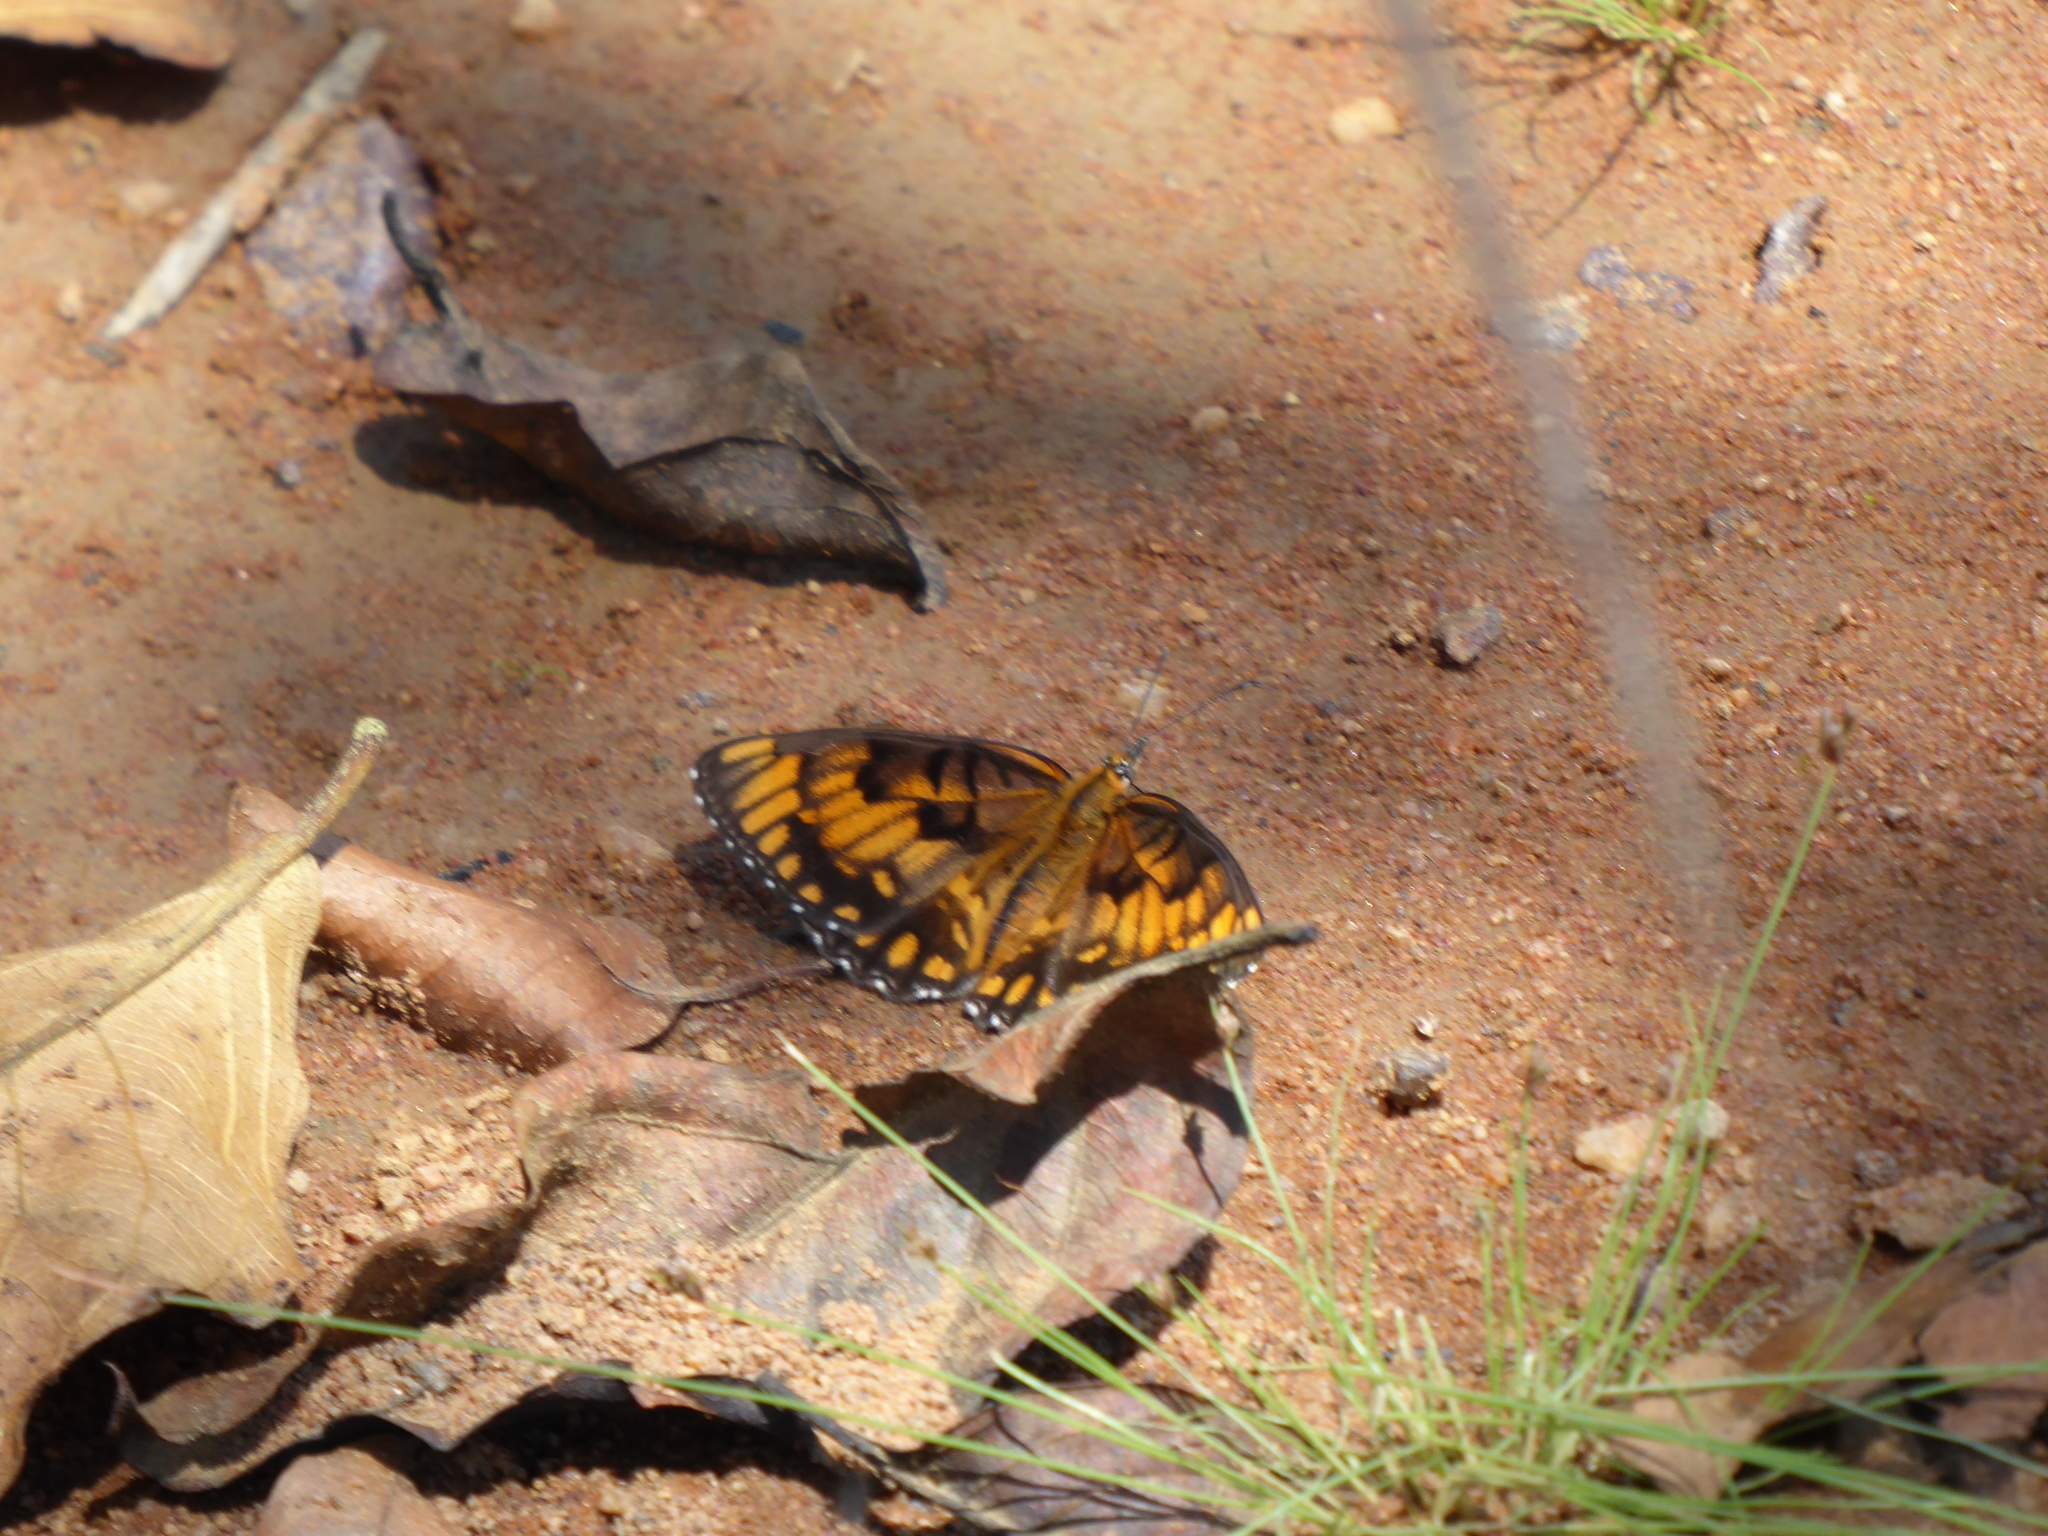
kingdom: Animalia
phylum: Arthropoda
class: Insecta
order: Lepidoptera
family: Nymphalidae
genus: Byblia
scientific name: Byblia ilithyia
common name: Spotted joker
